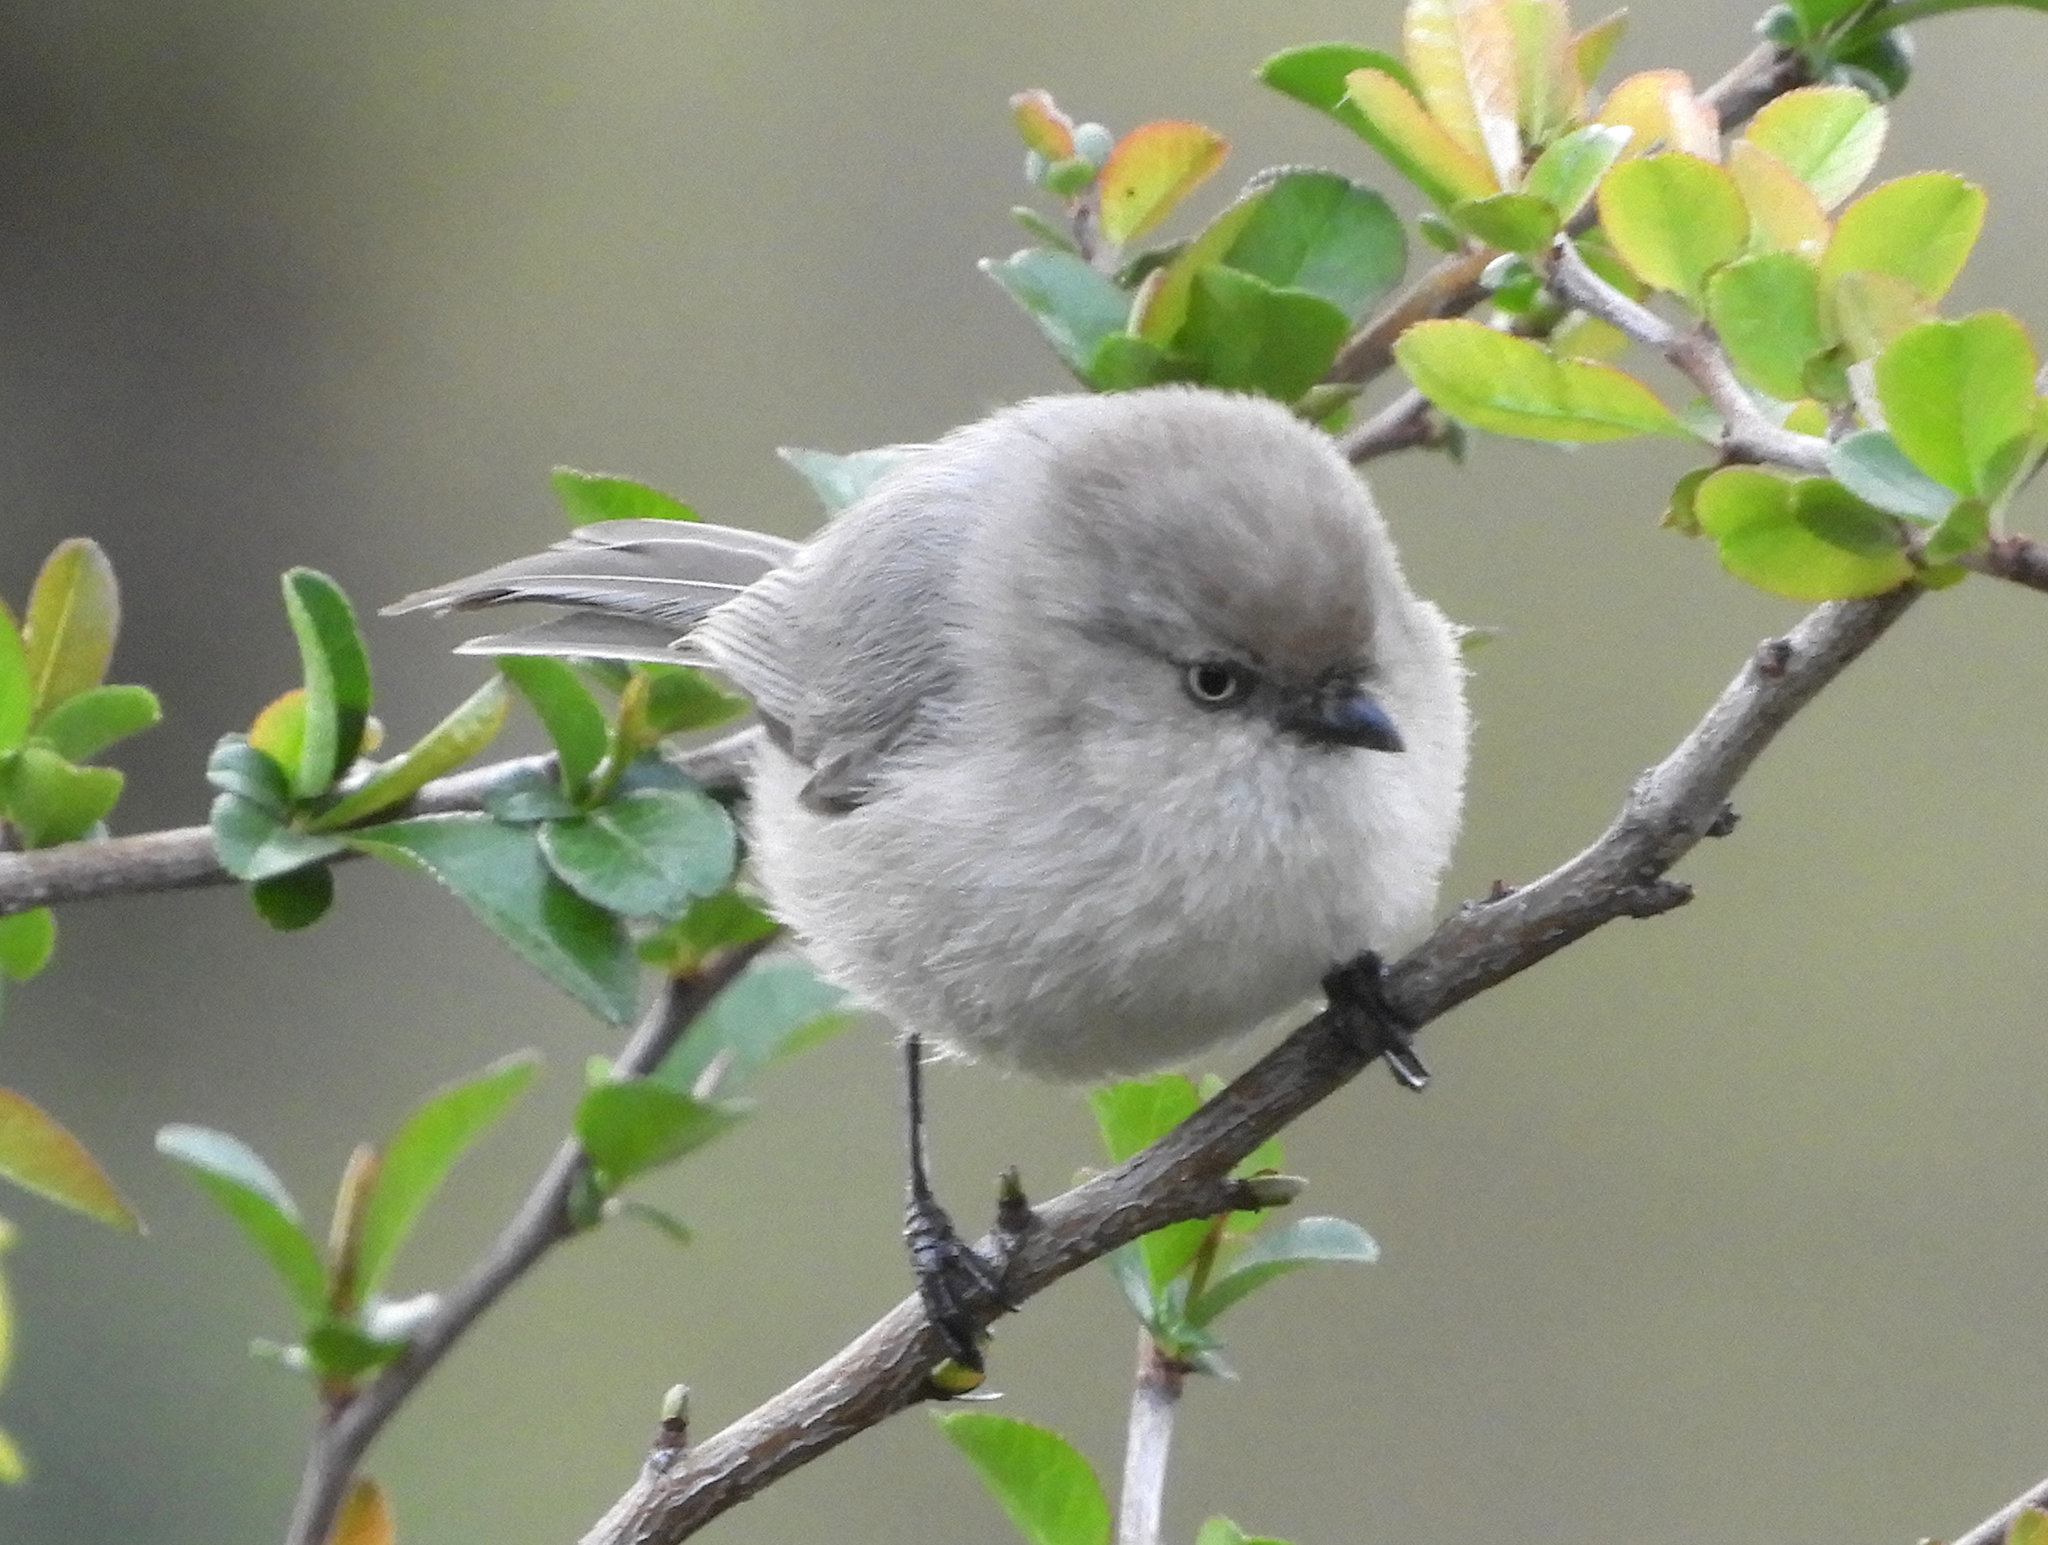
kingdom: Animalia
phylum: Chordata
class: Aves
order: Passeriformes
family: Aegithalidae
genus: Psaltriparus
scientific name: Psaltriparus minimus
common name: American bushtit
